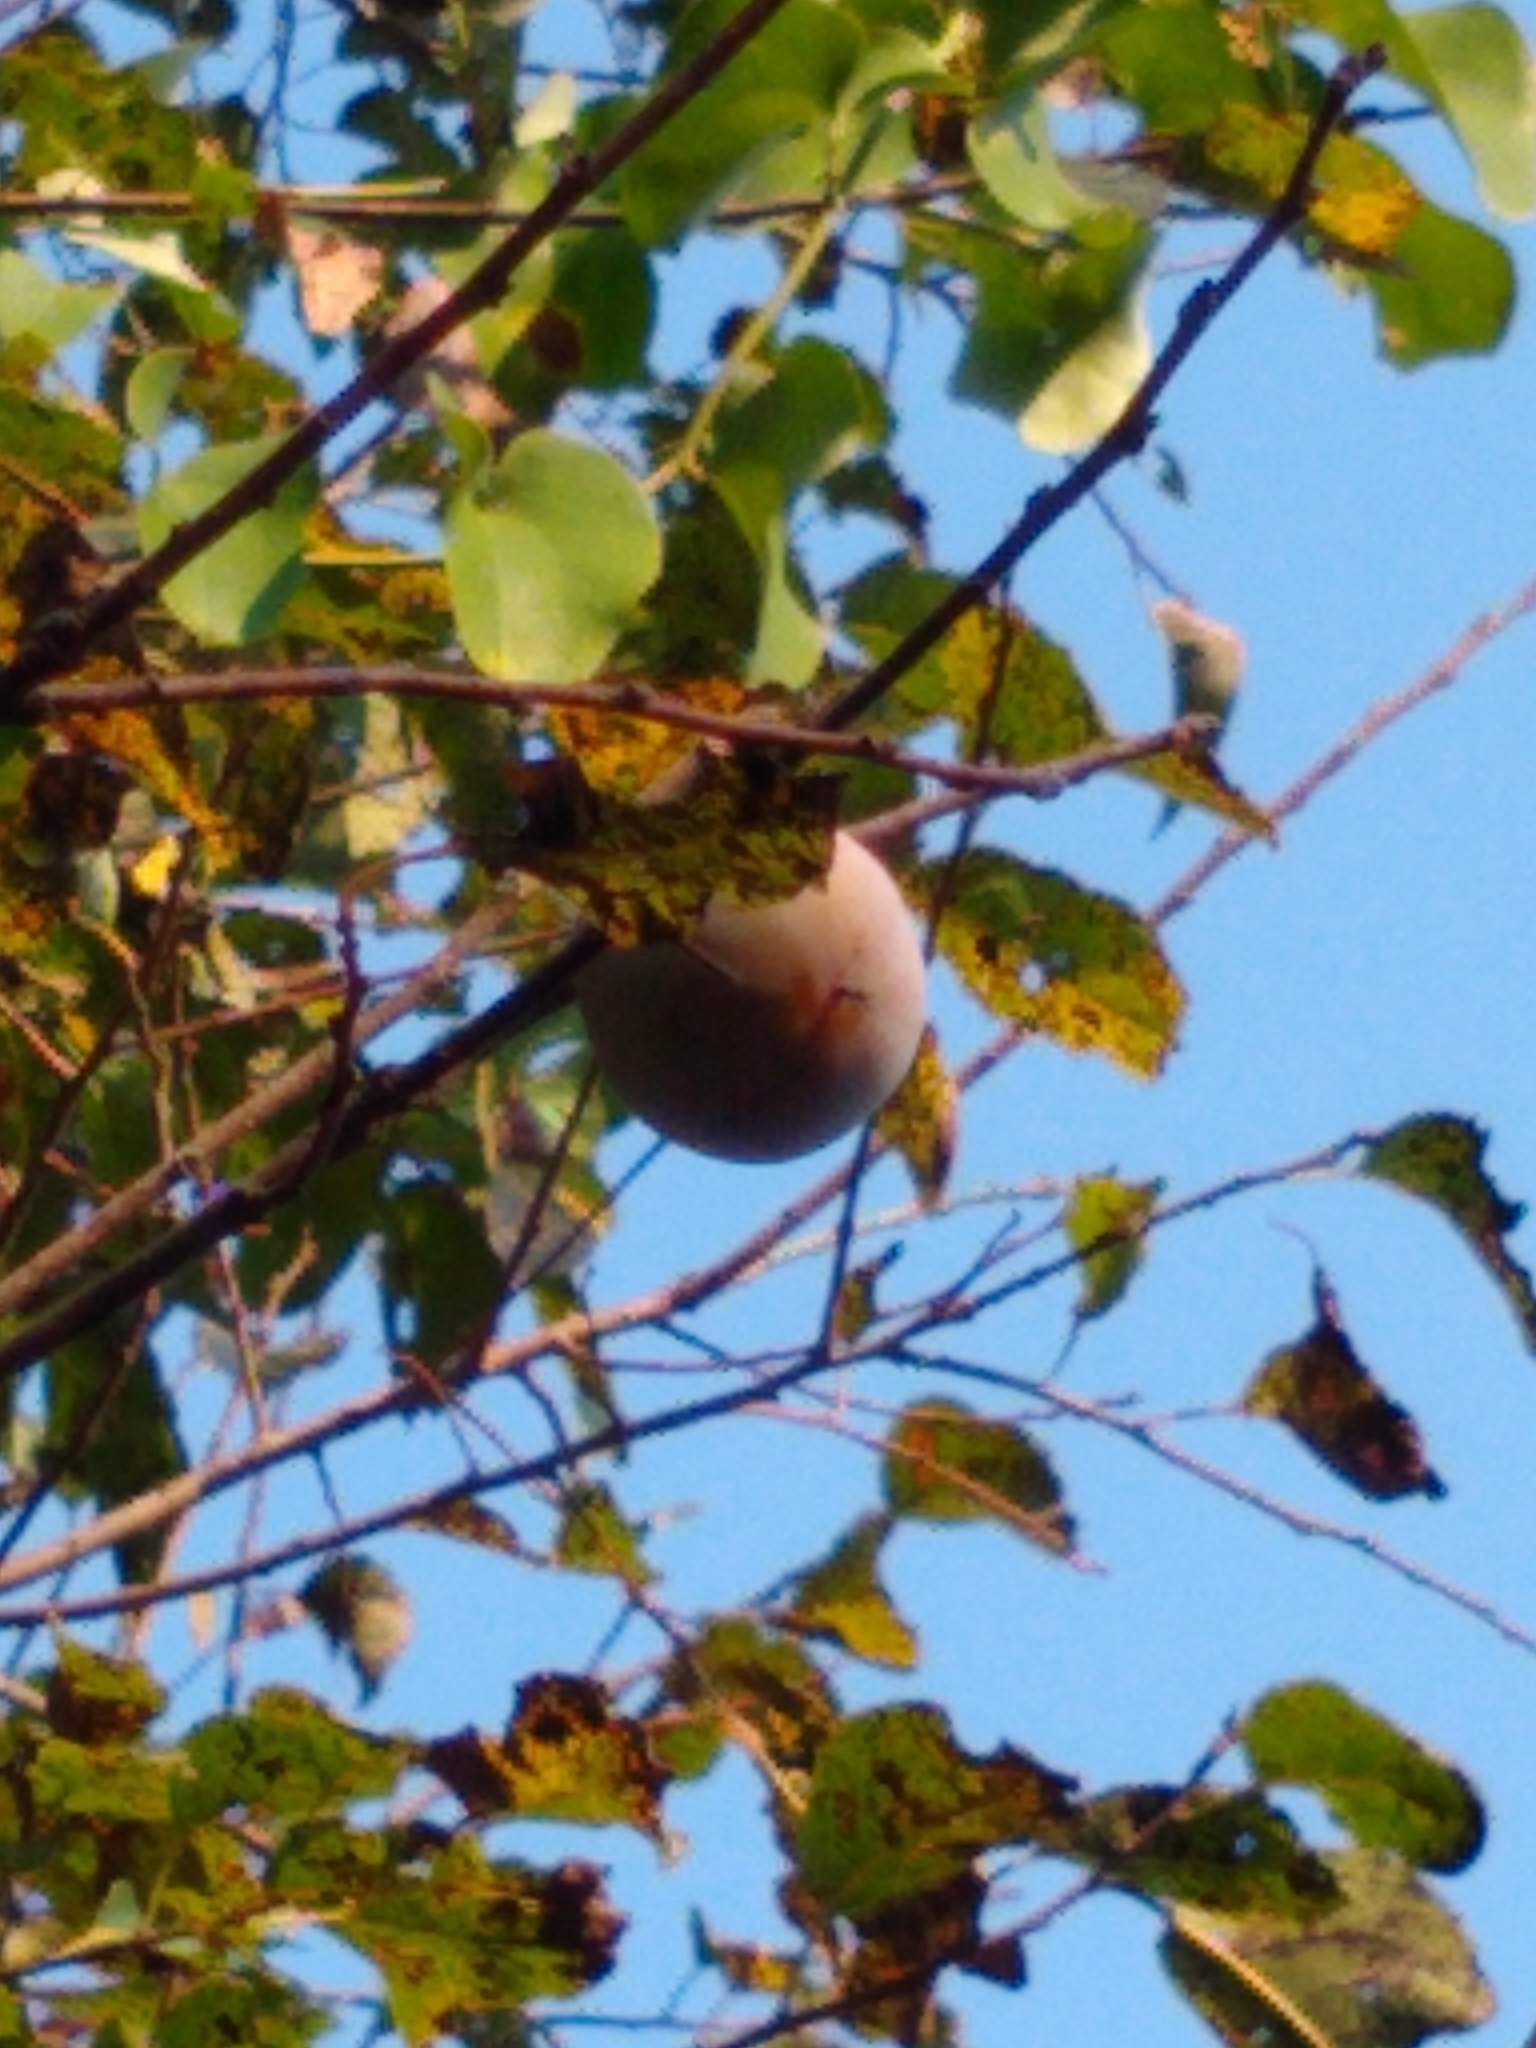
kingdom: Plantae
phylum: Tracheophyta
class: Magnoliopsida
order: Ericales
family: Ebenaceae
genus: Diospyros
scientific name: Diospyros virginiana
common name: Persimmon
